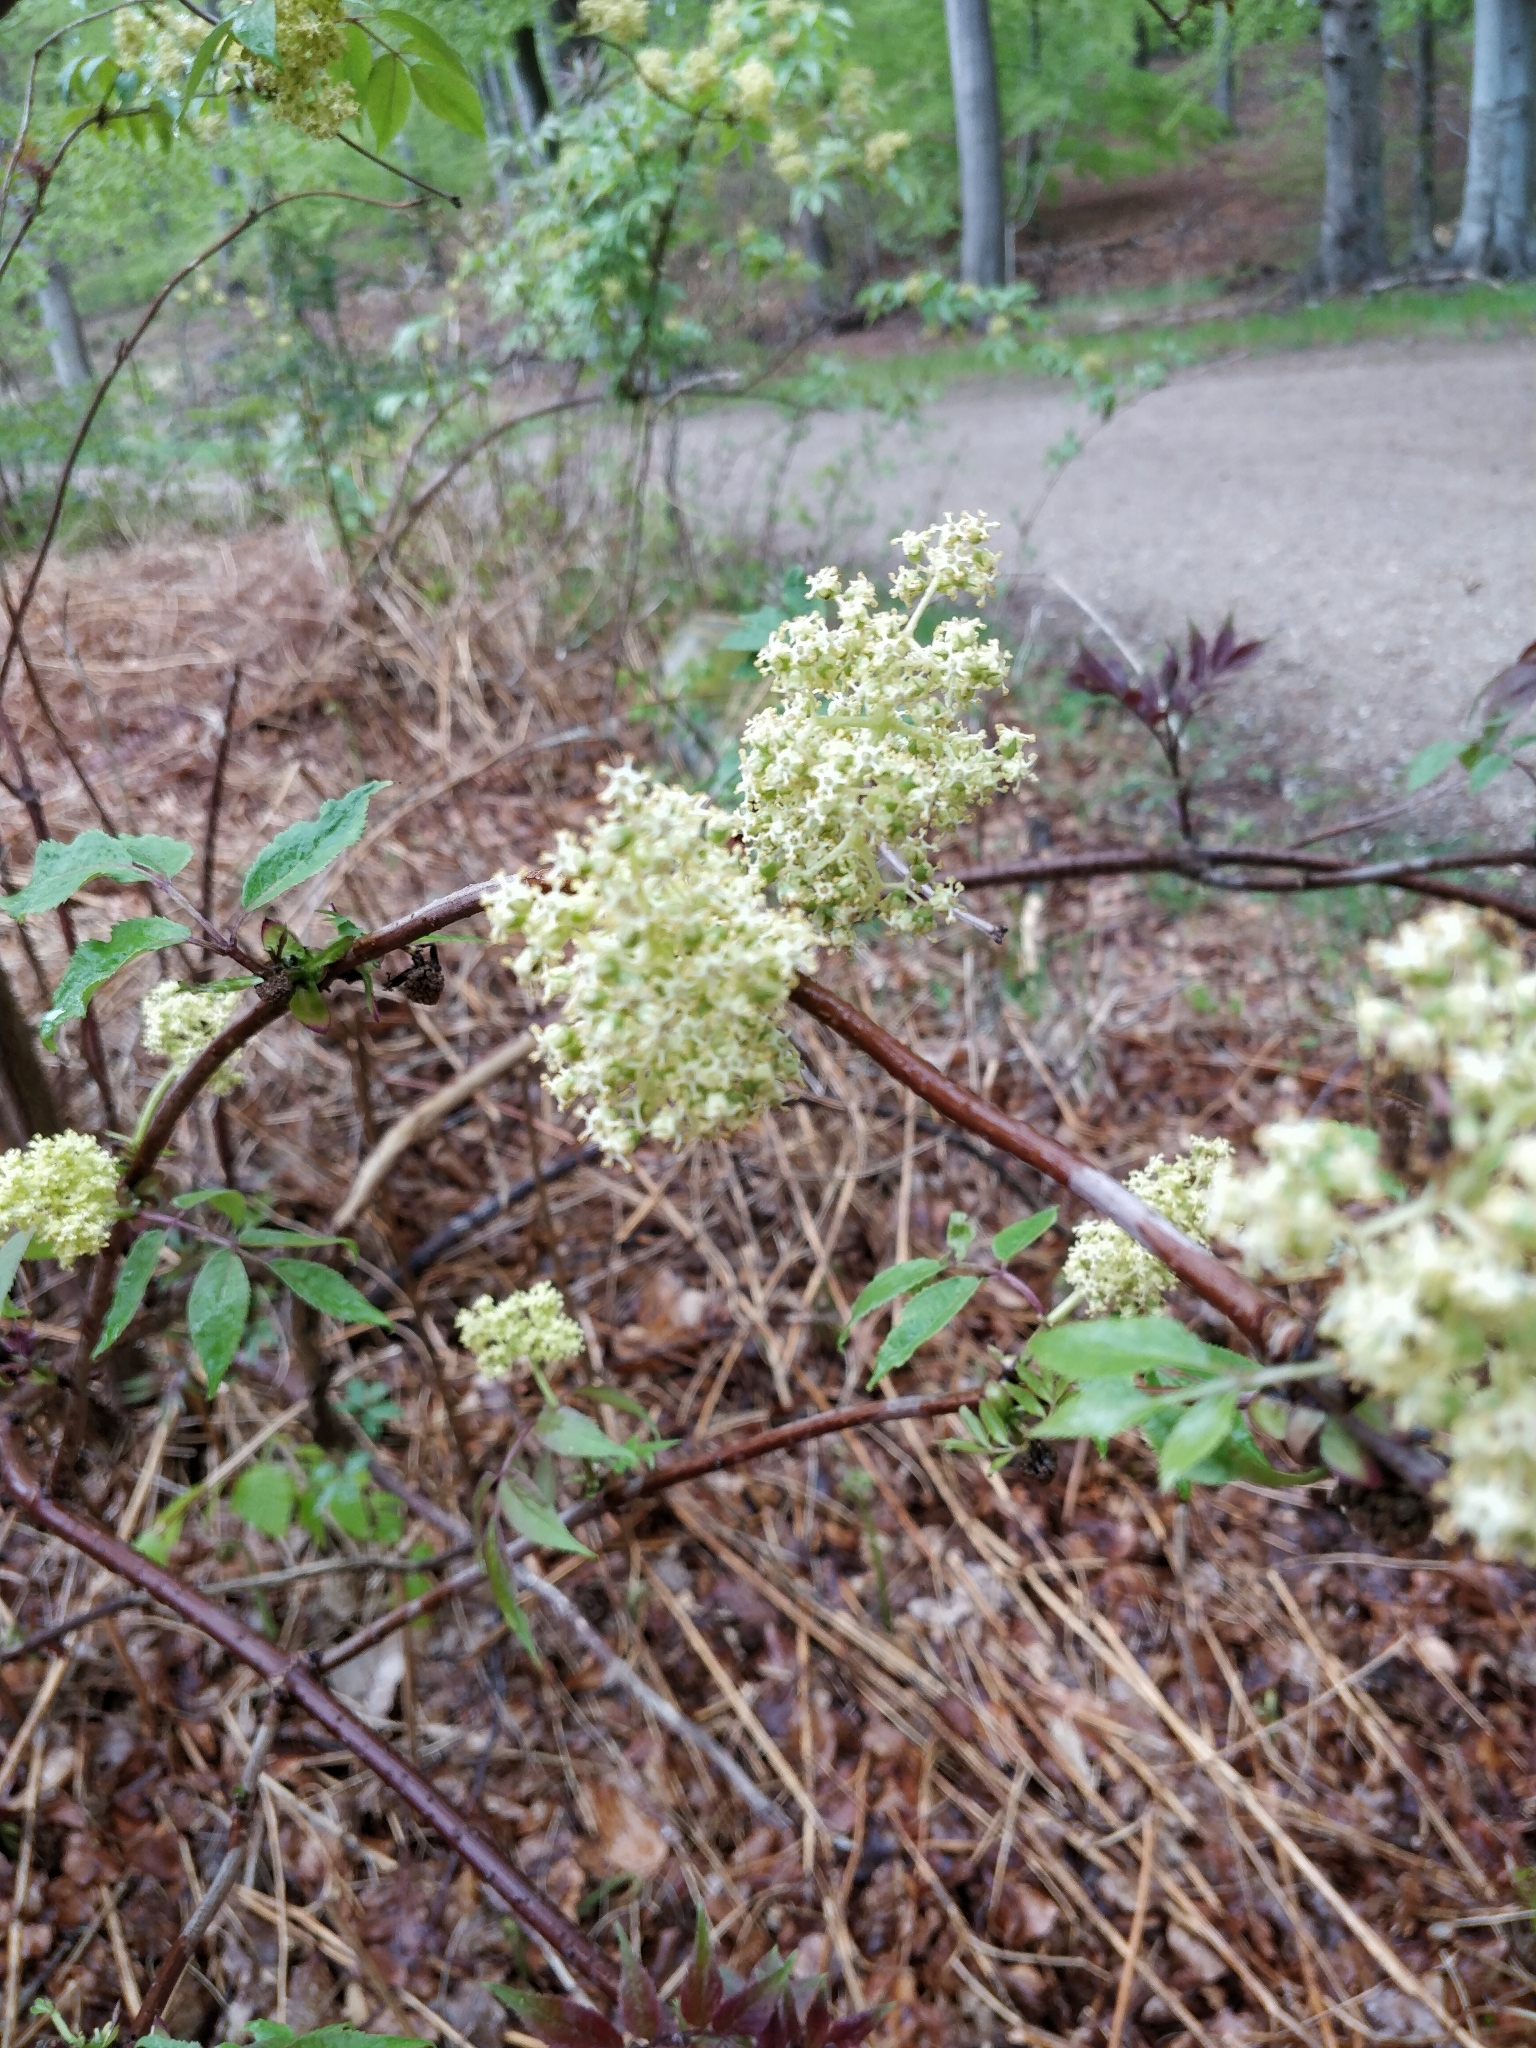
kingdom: Plantae
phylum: Tracheophyta
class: Magnoliopsida
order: Dipsacales
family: Viburnaceae
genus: Sambucus
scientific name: Sambucus racemosa
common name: Red-berried elder
